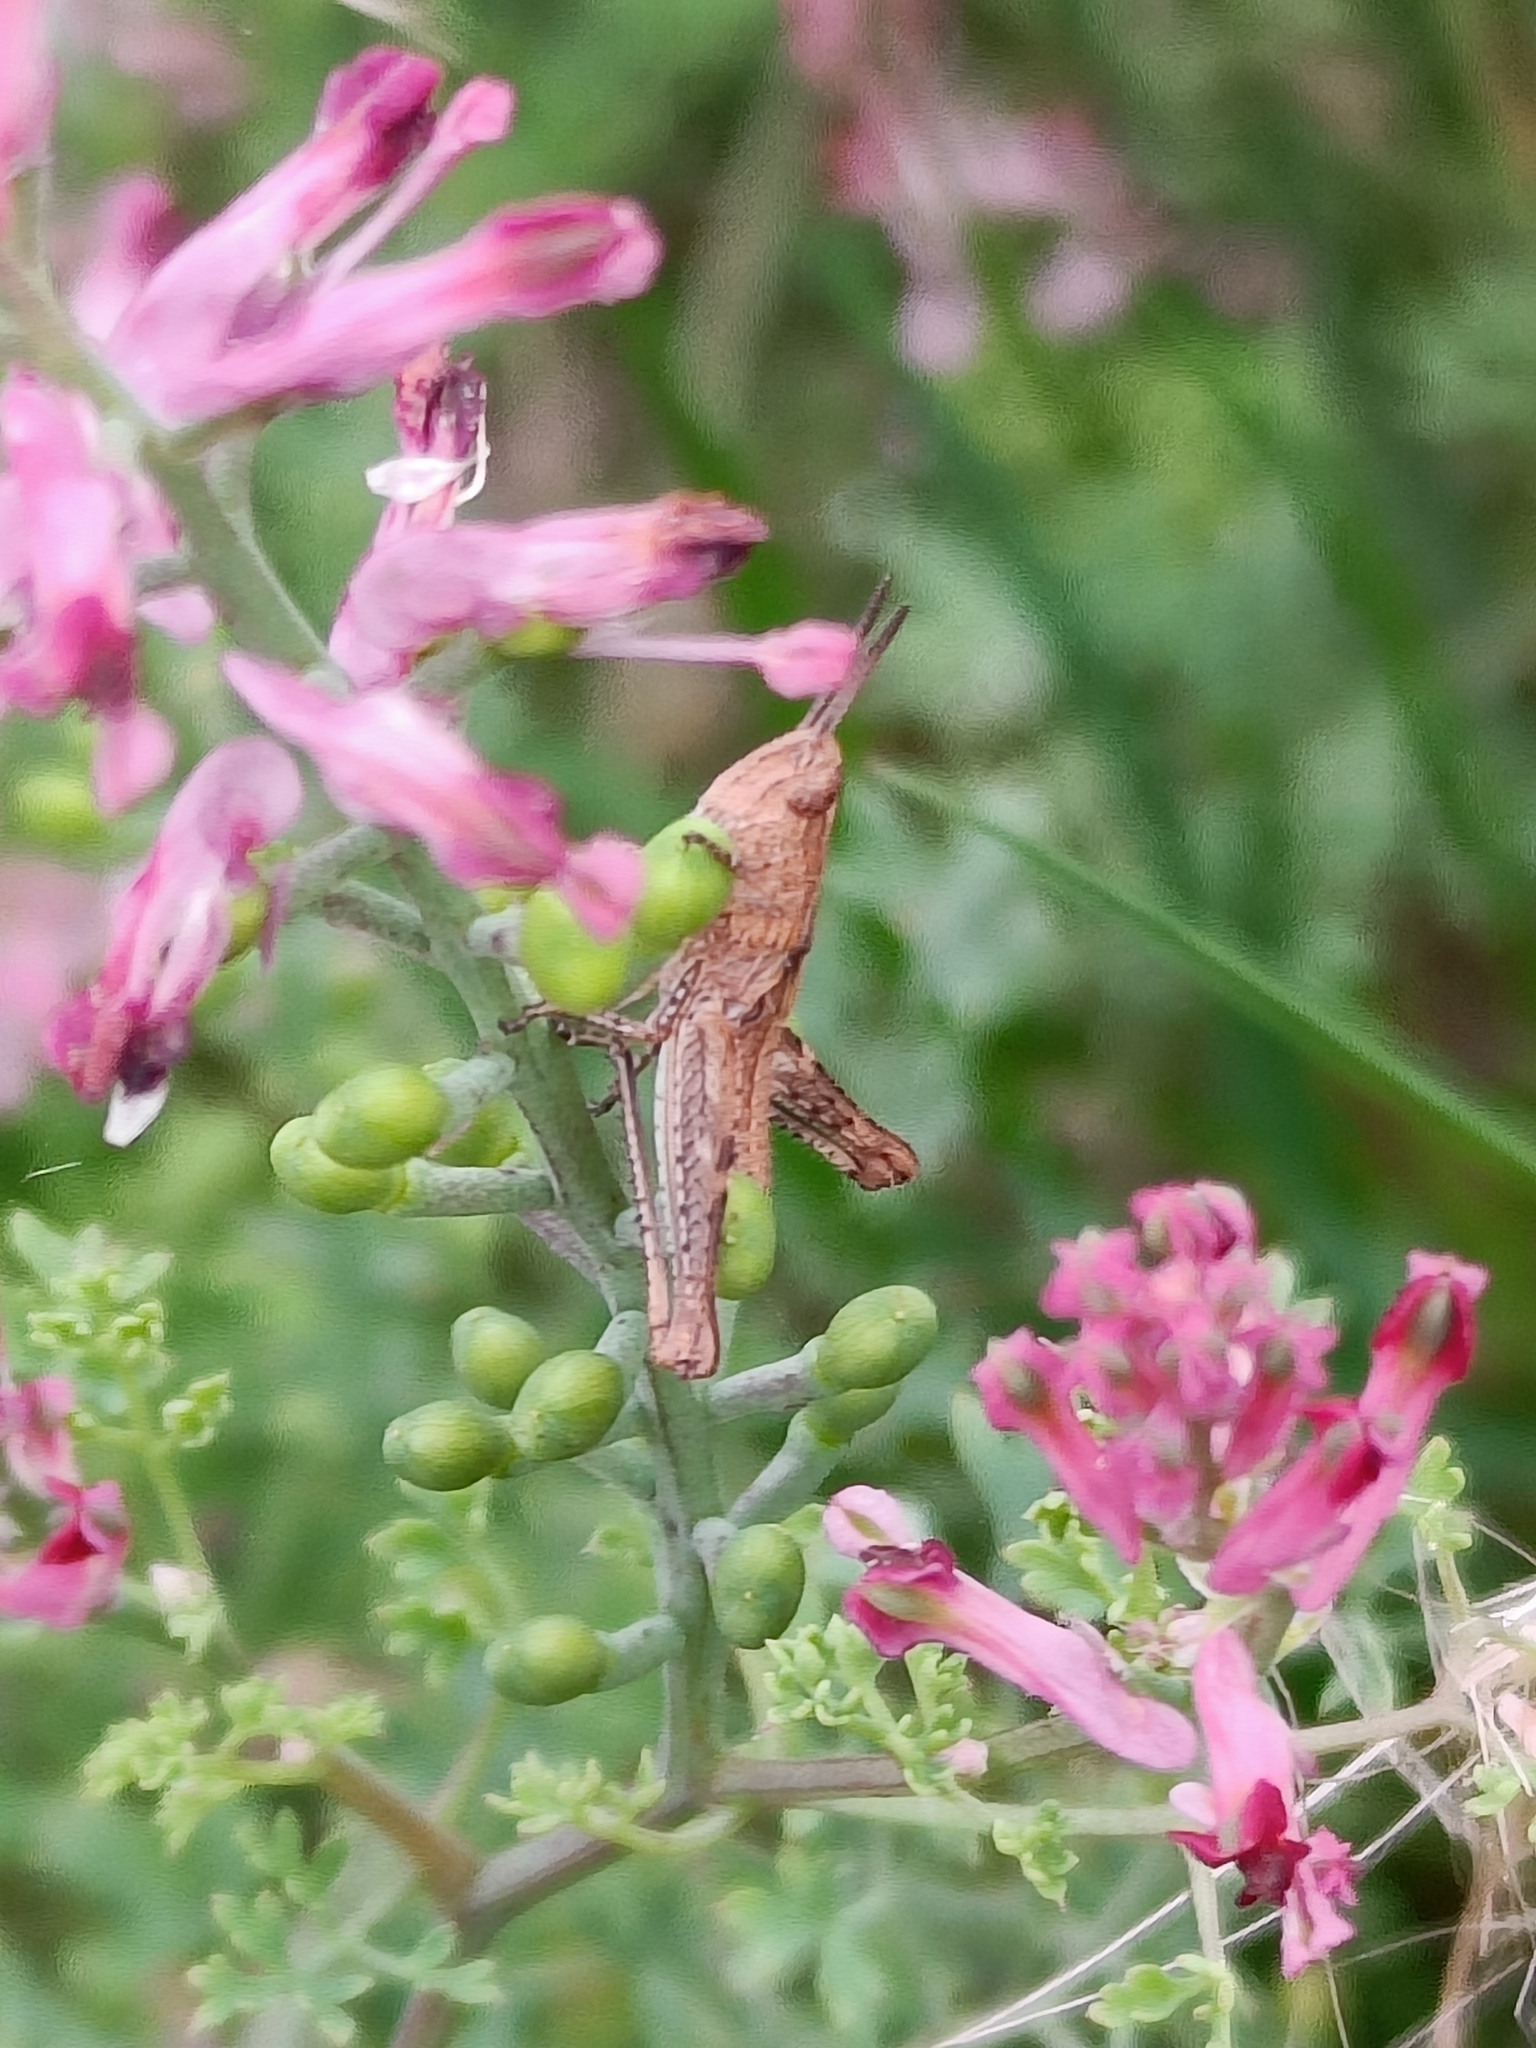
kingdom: Animalia
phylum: Arthropoda
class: Insecta
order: Orthoptera
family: Acrididae
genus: Chorthippus
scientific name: Chorthippus brunneus
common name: Field grasshopper
